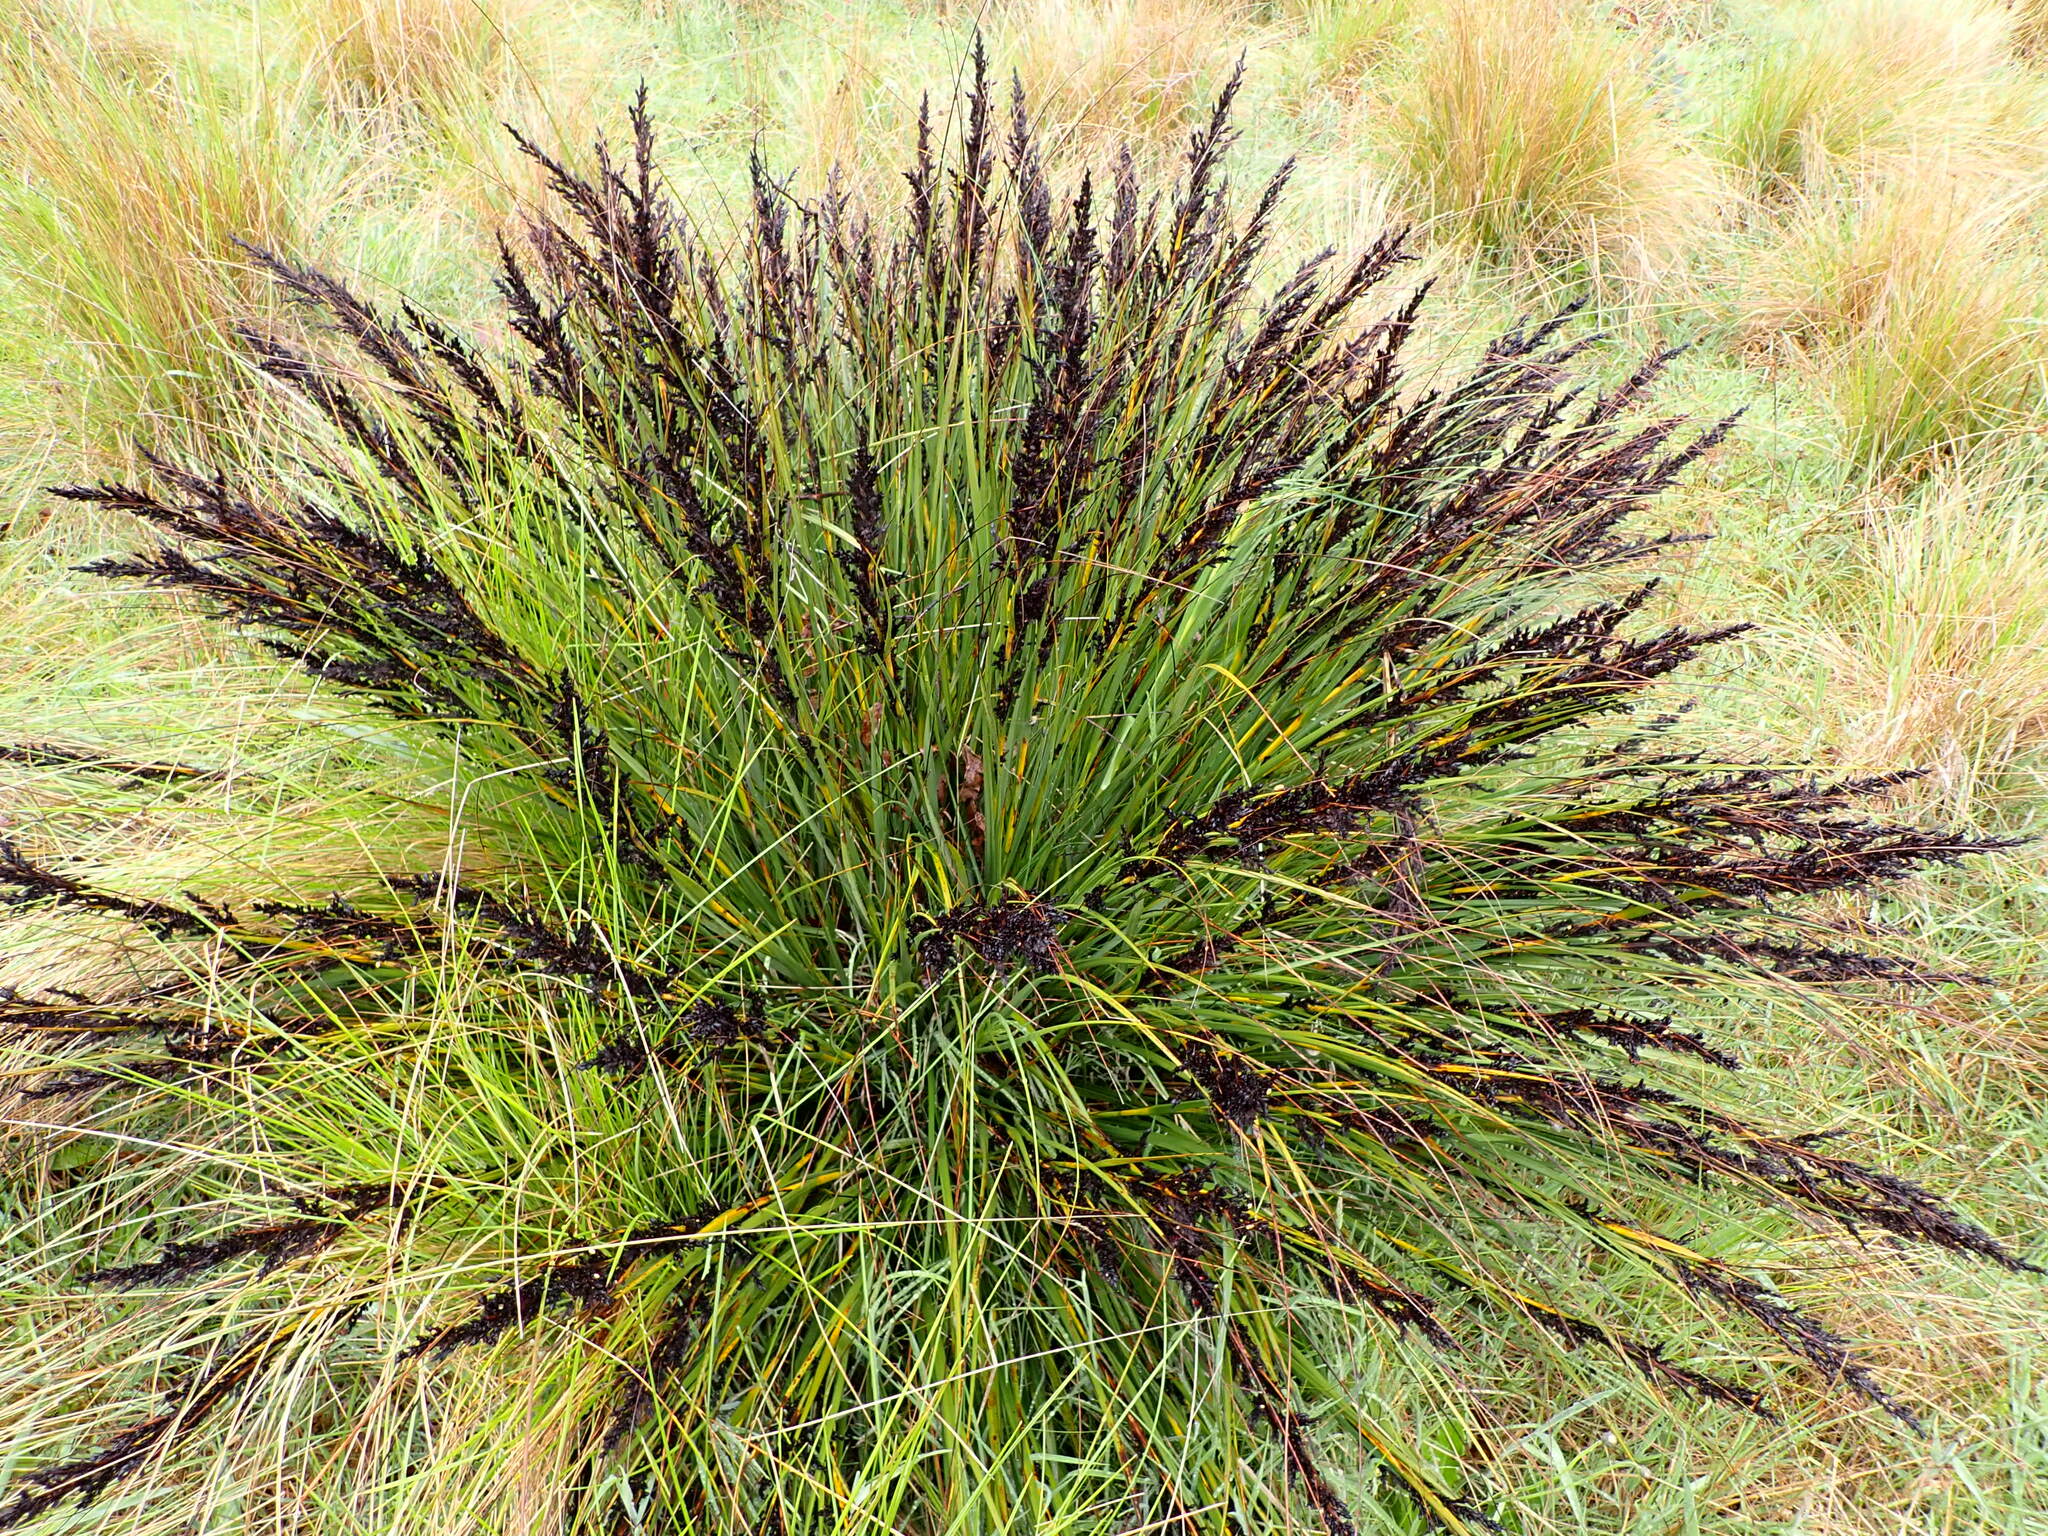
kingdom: Plantae
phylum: Tracheophyta
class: Liliopsida
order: Poales
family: Cyperaceae
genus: Gahnia
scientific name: Gahnia subaequiglumis
